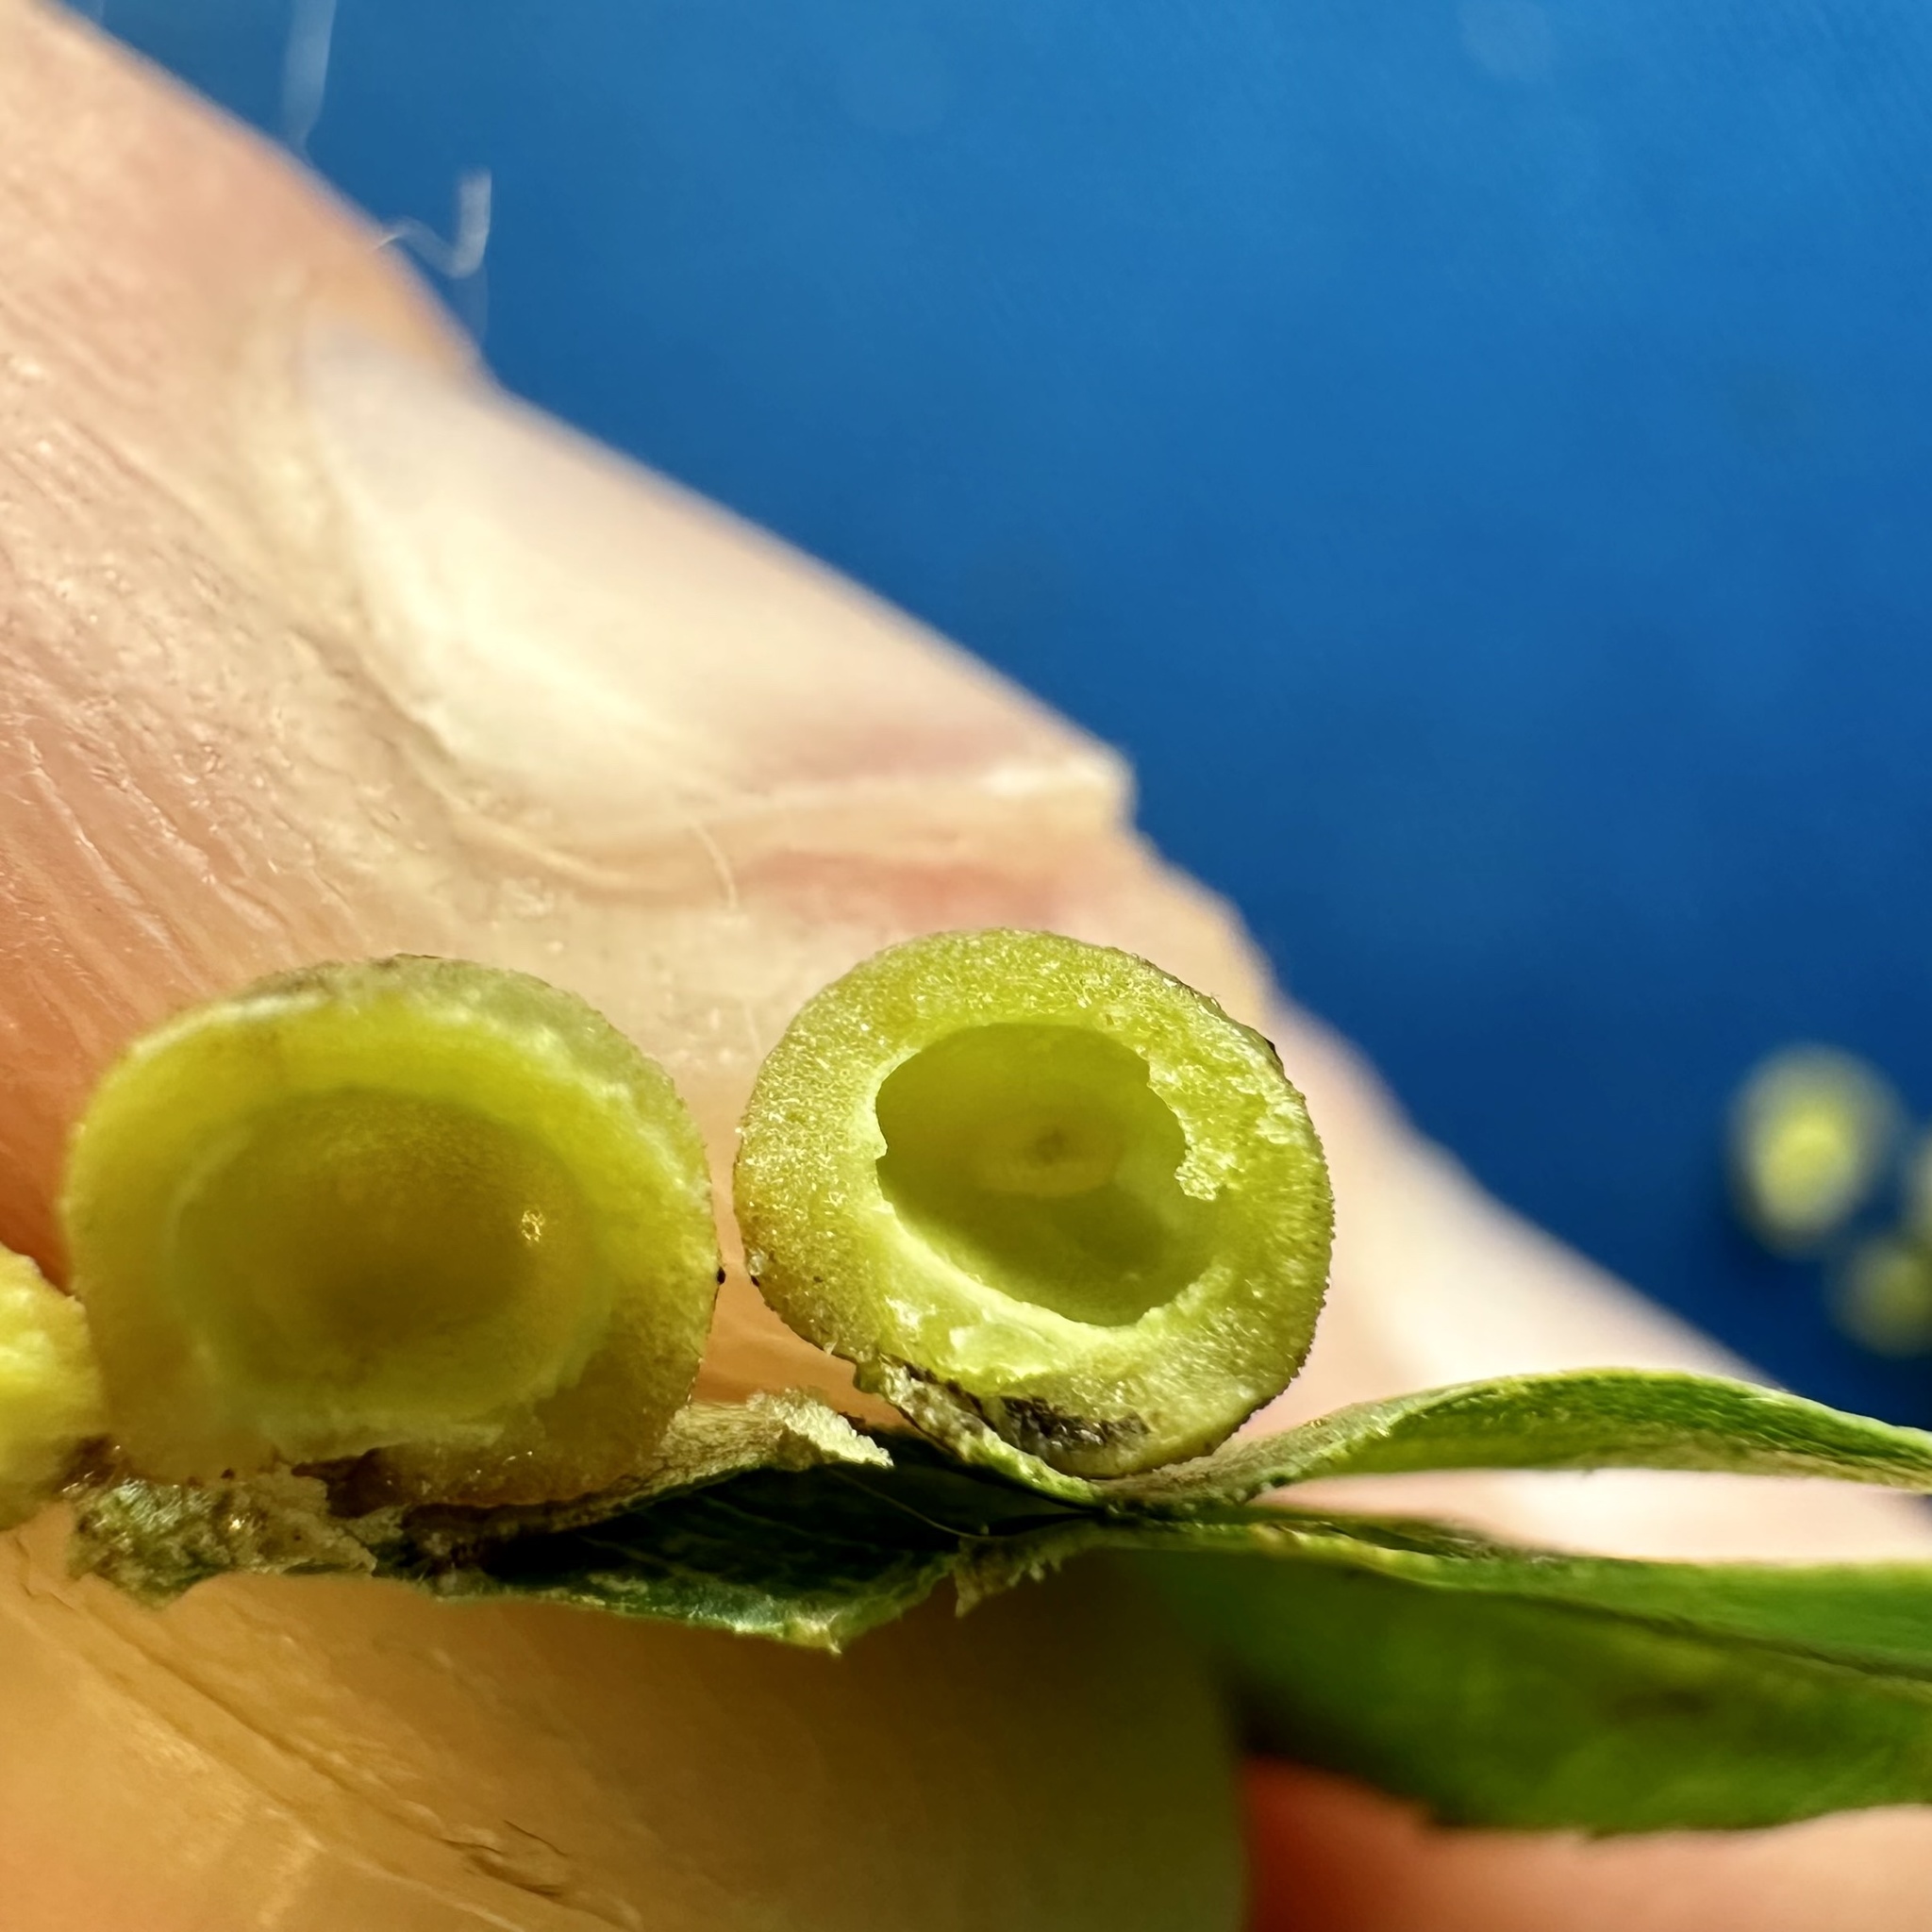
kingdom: Animalia
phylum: Arthropoda
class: Insecta
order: Diptera
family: Cecidomyiidae
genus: Caryomyia
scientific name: Caryomyia tuberculata
